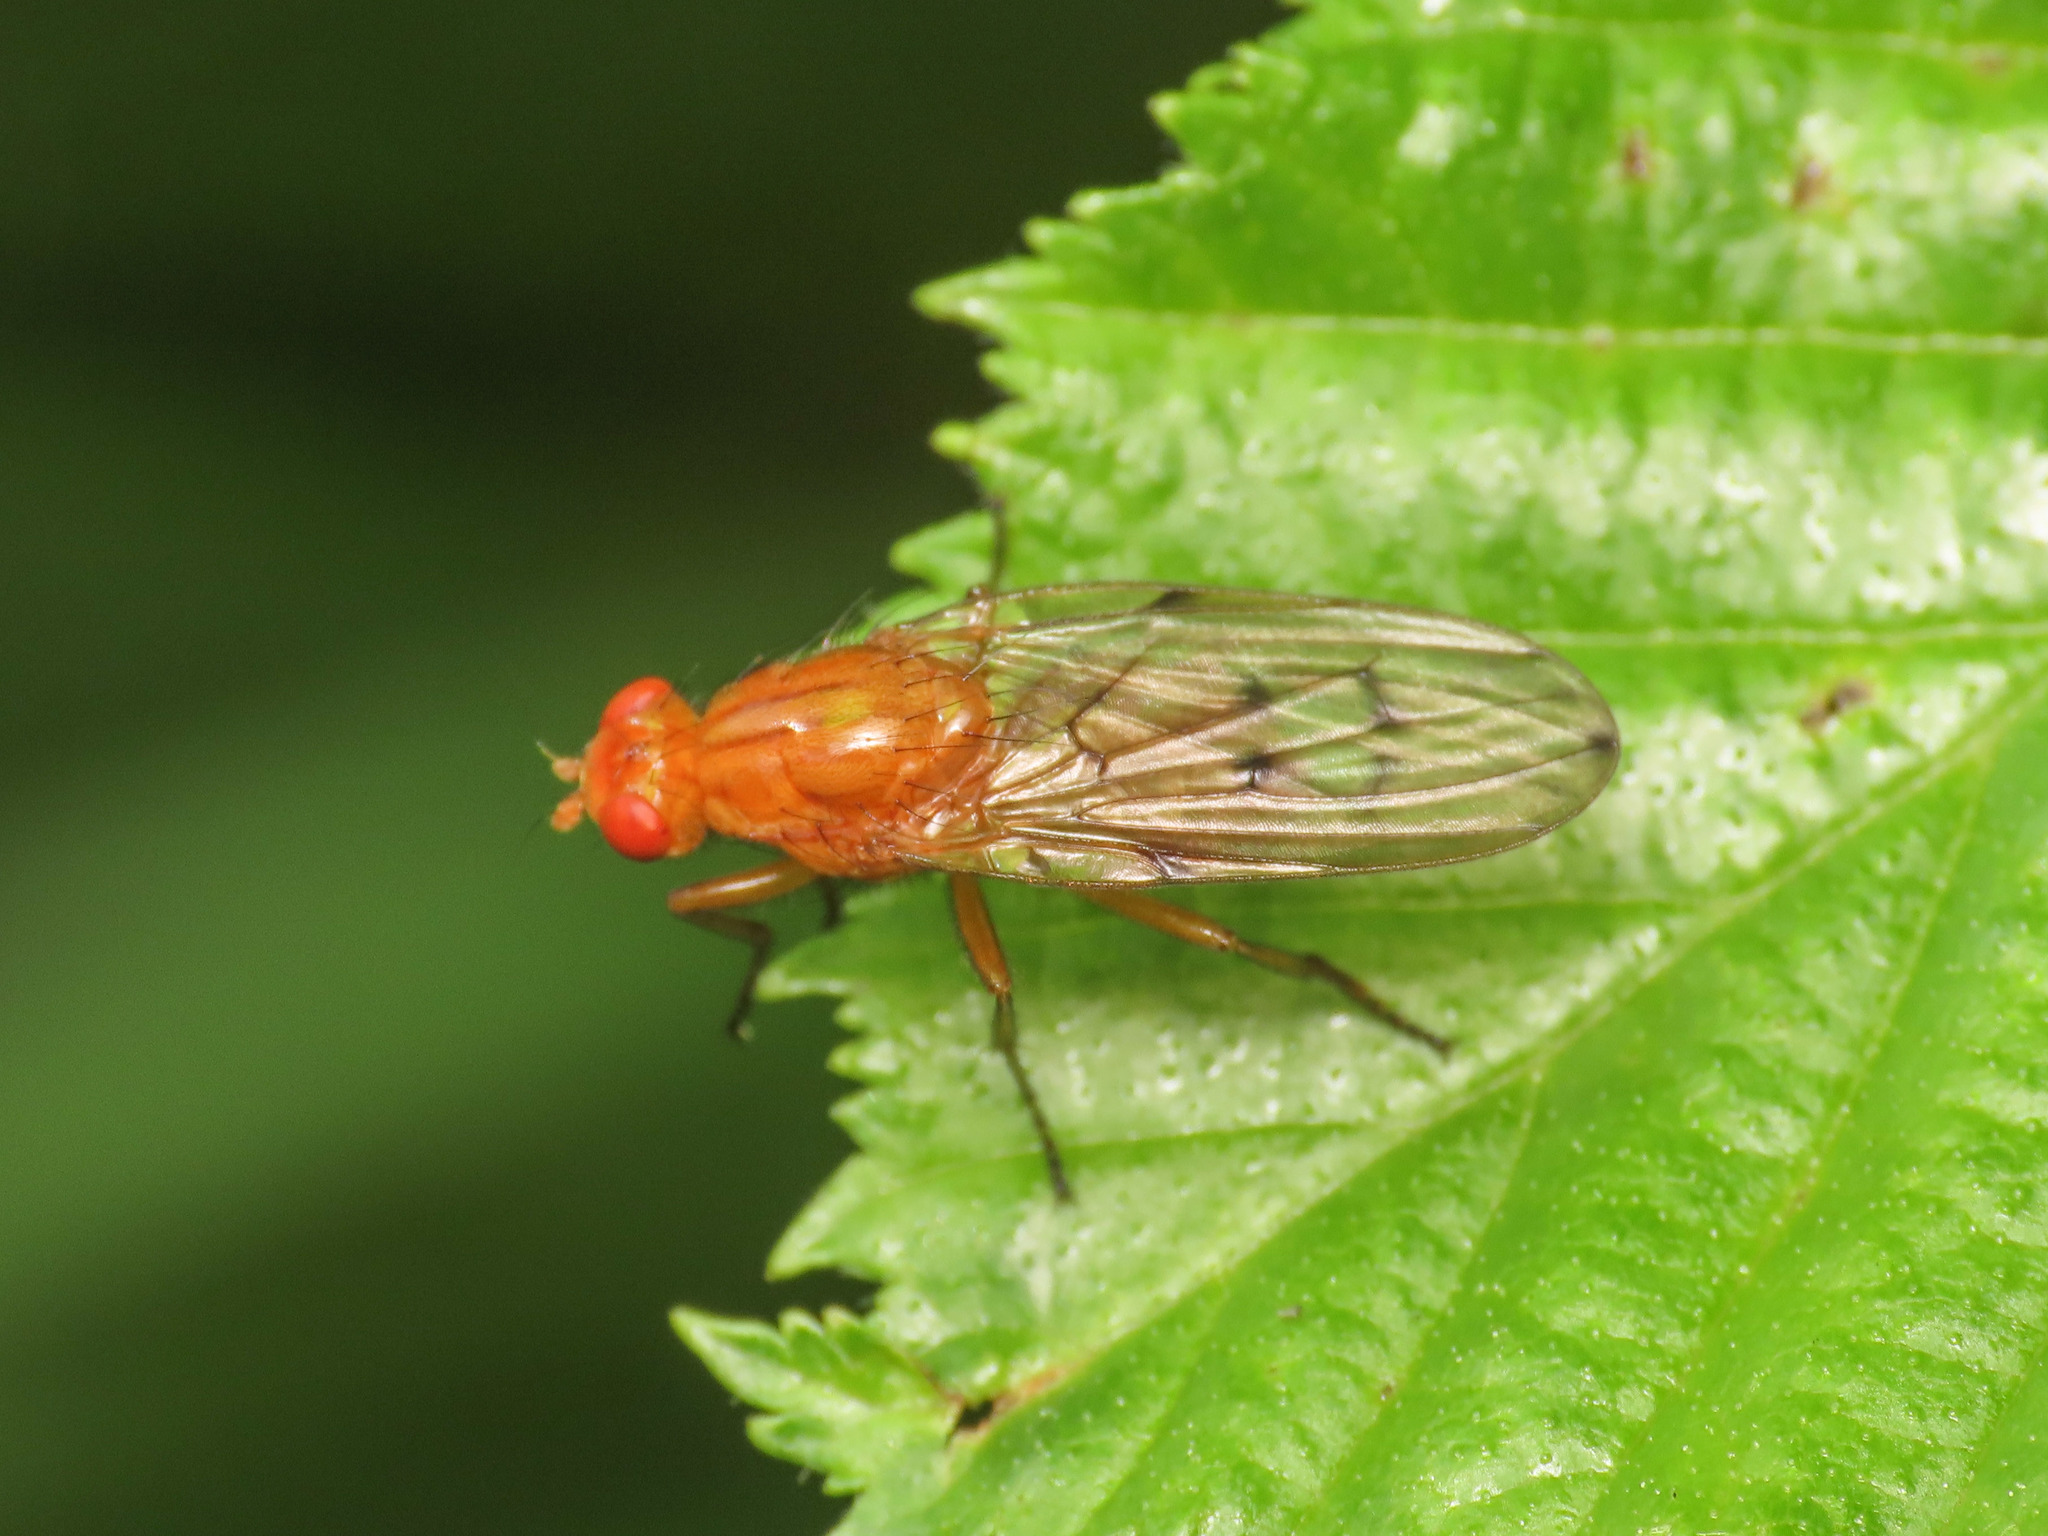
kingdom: Animalia
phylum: Arthropoda
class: Insecta
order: Diptera
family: Dryomyzidae
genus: Dryomyza
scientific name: Dryomyza anilis
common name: Marsh fly
